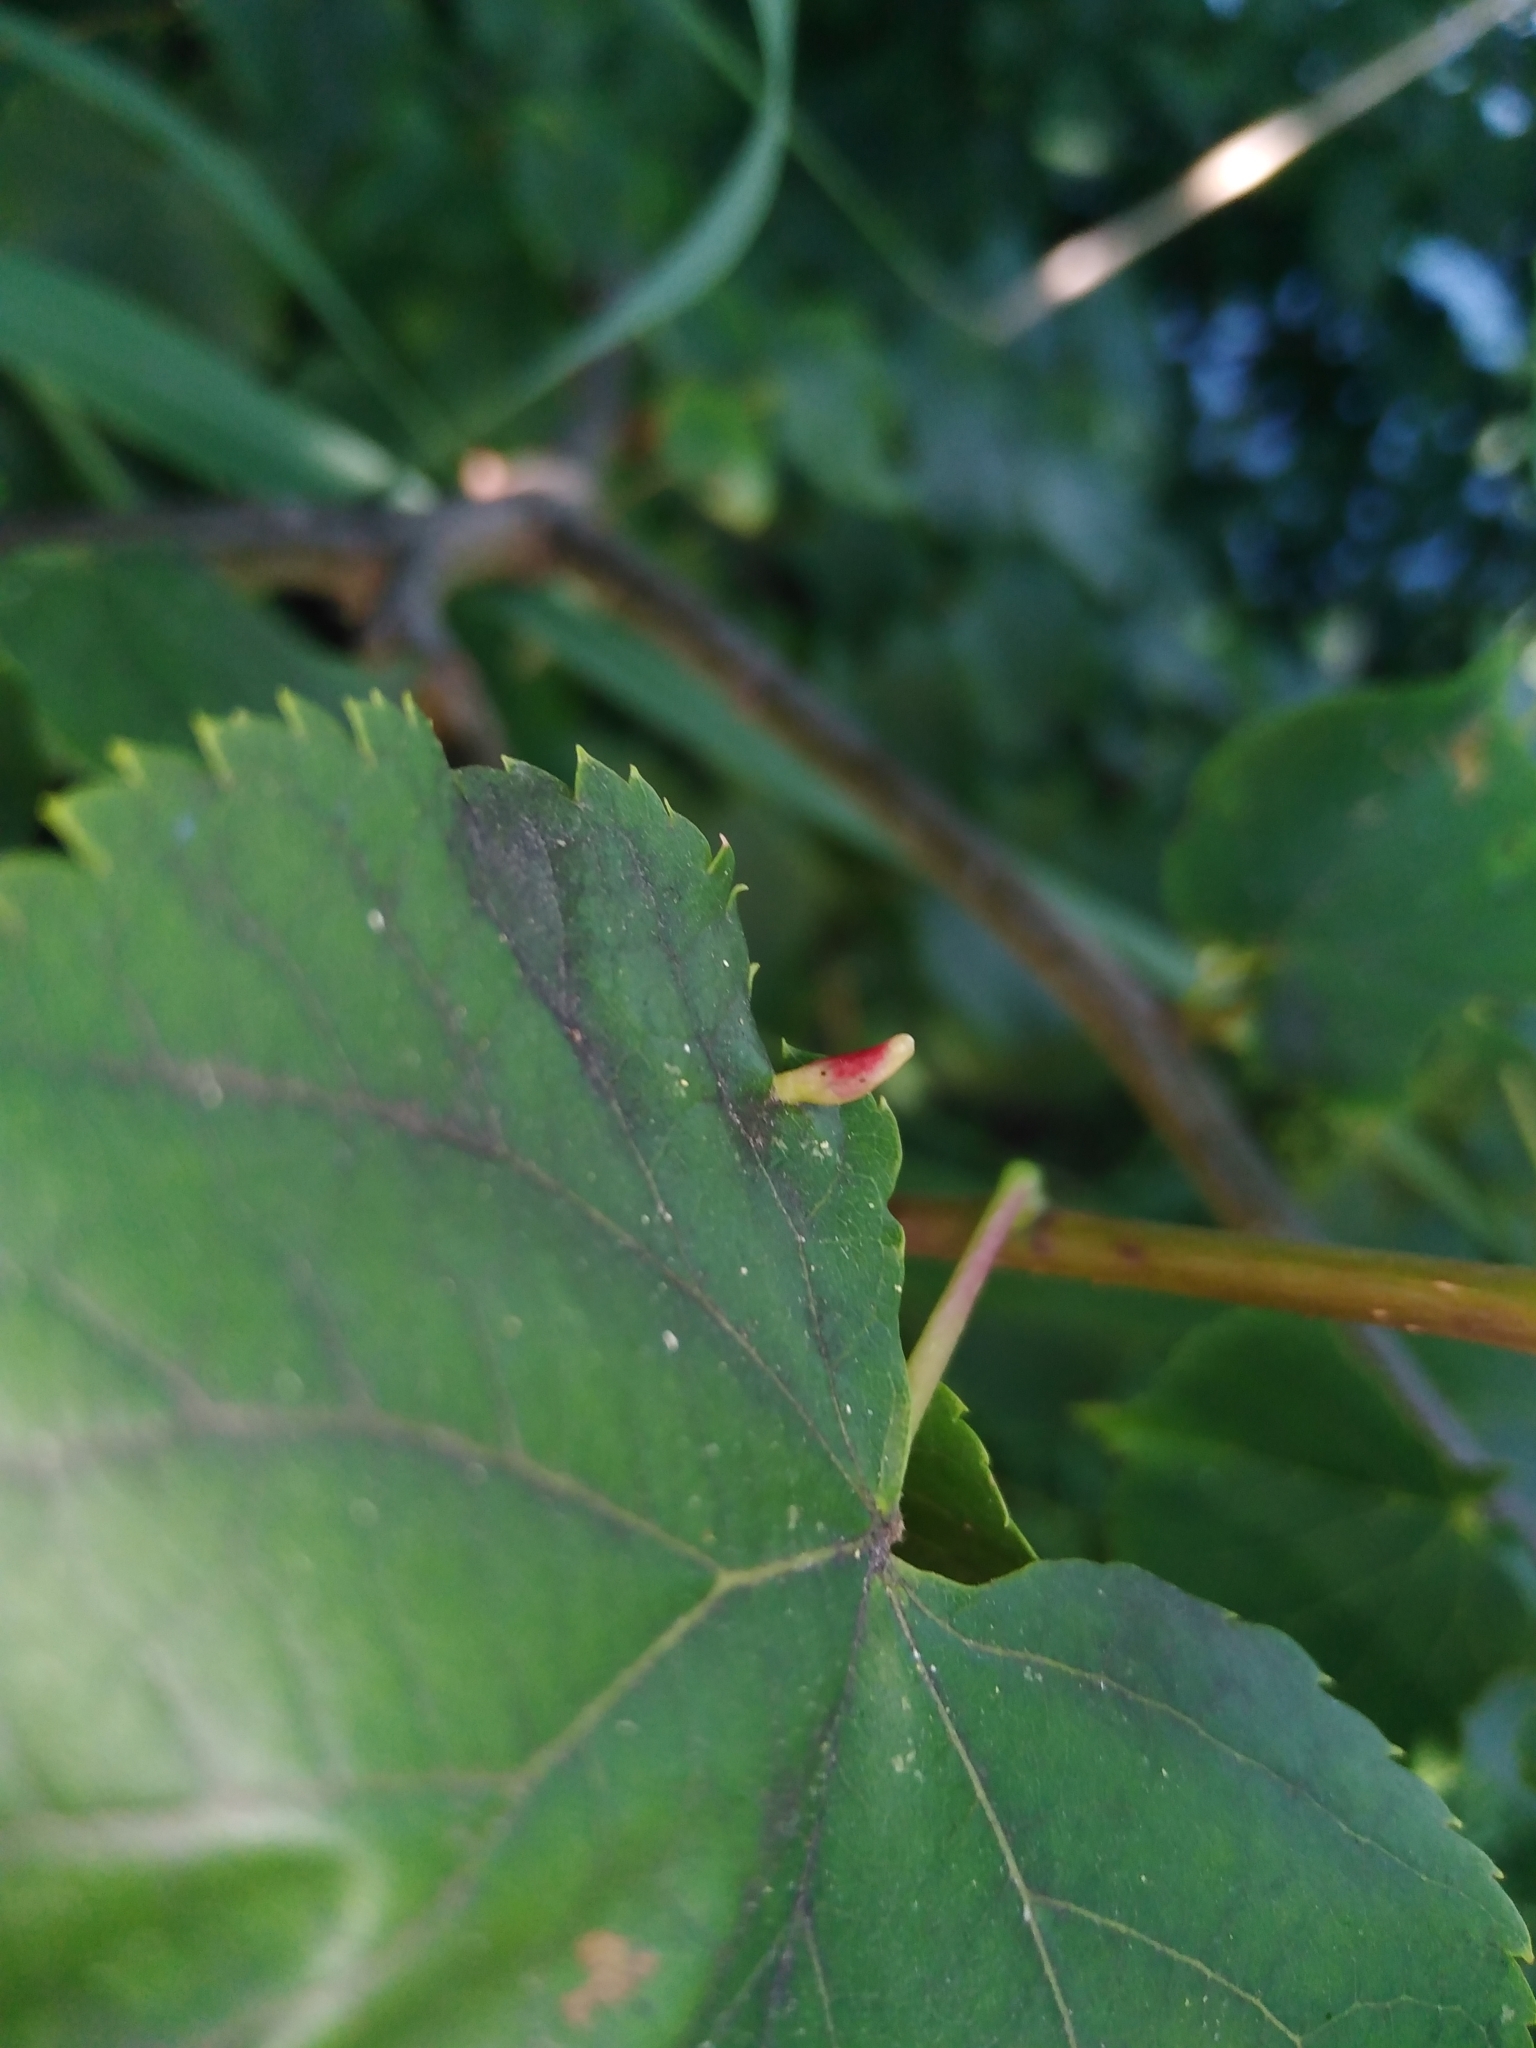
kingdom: Animalia
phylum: Arthropoda
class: Arachnida
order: Trombidiformes
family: Eriophyidae
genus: Eriophyes
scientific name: Eriophyes tiliae
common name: Red nail gall mite
